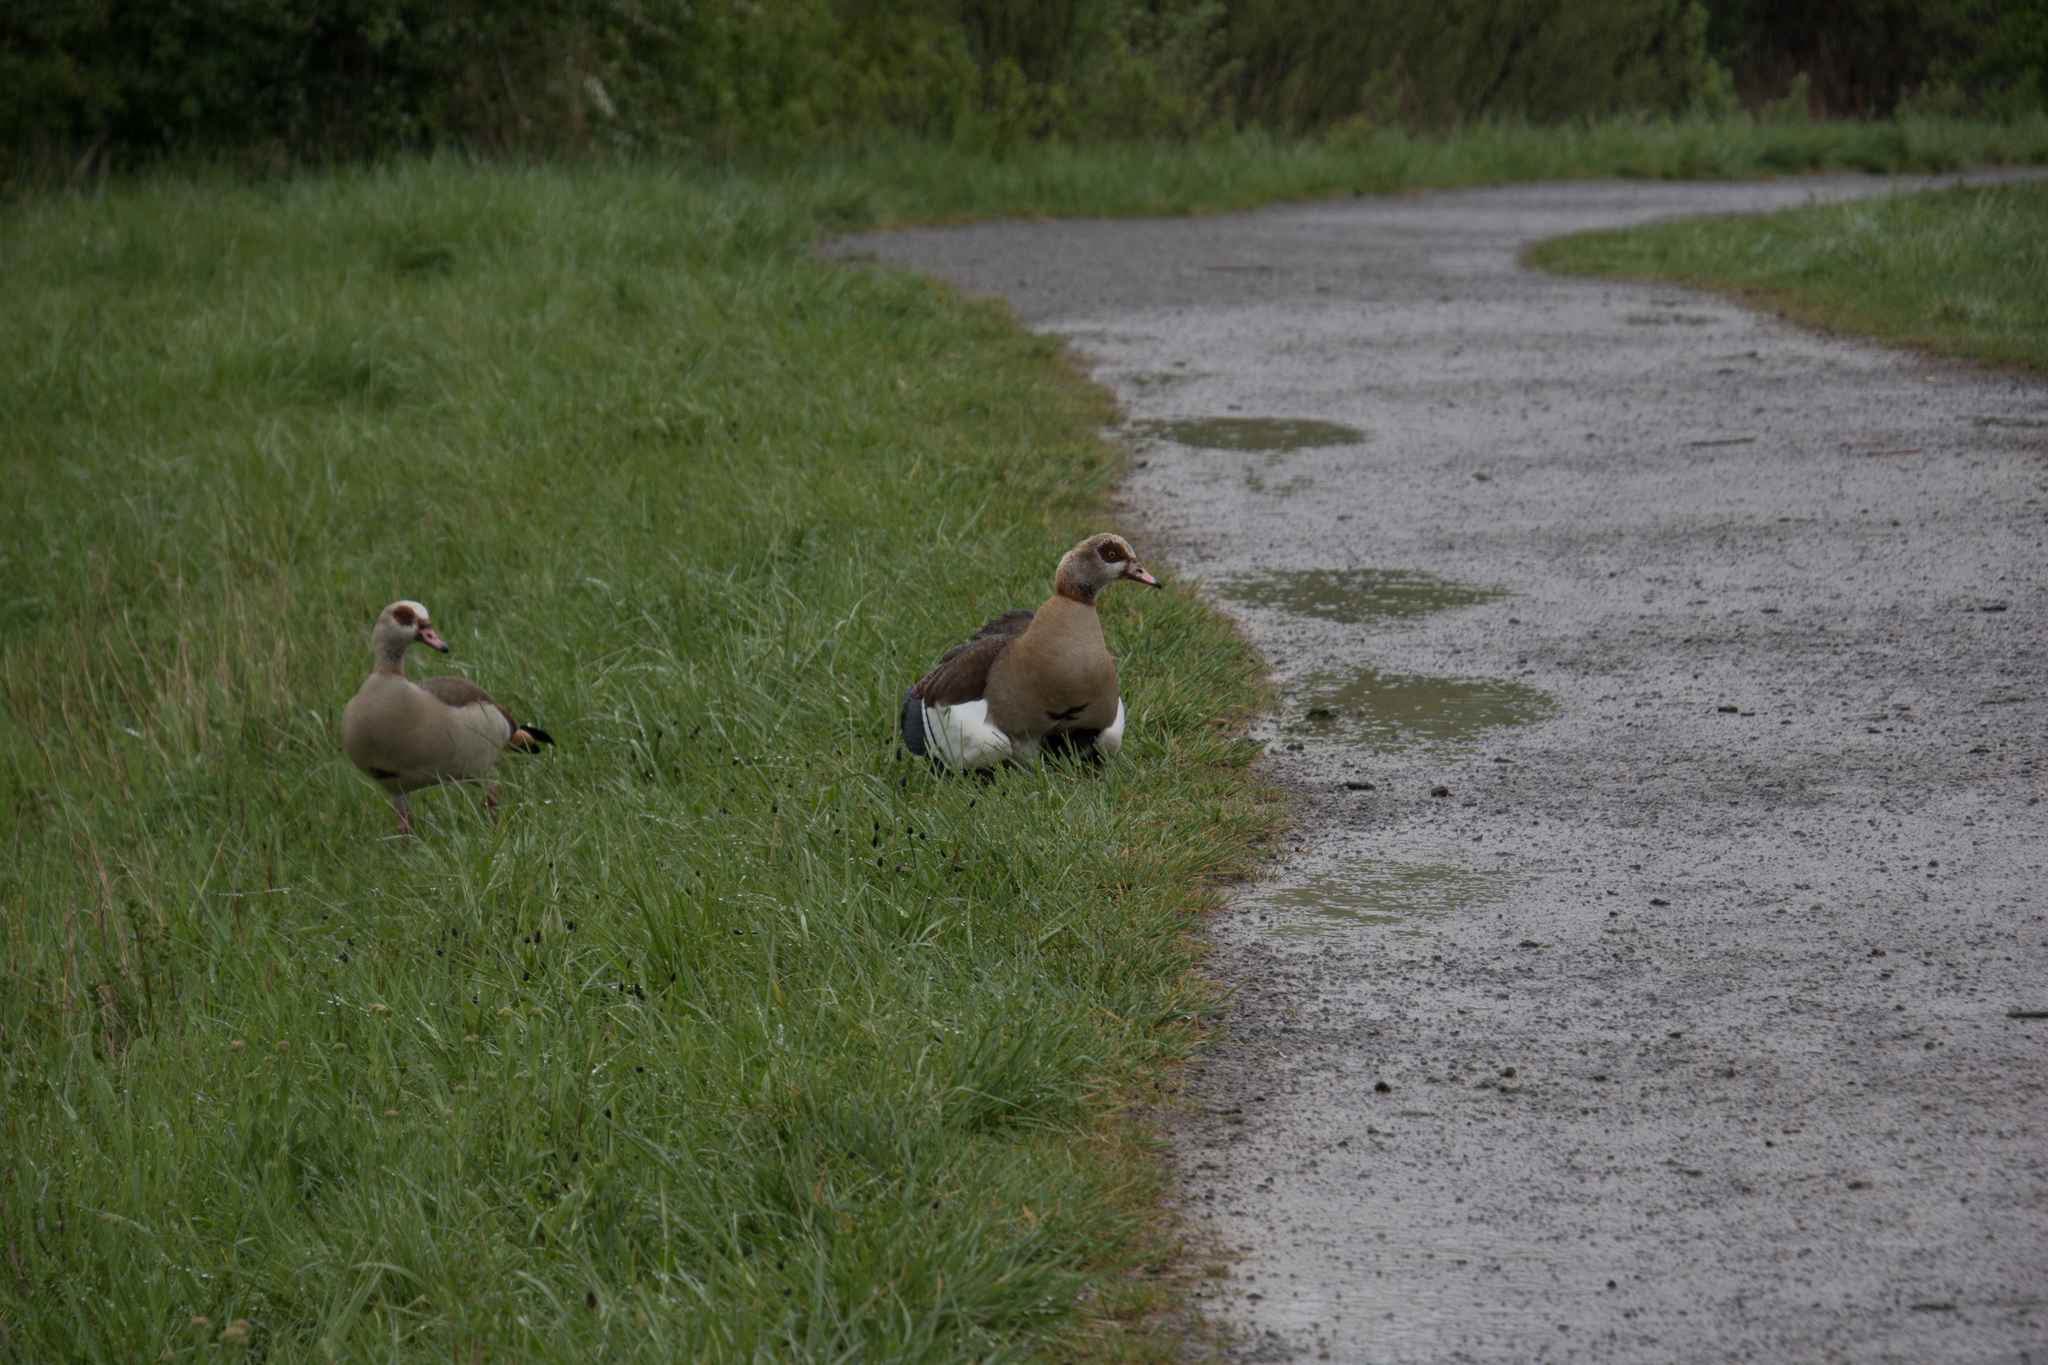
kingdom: Animalia
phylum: Chordata
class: Aves
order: Anseriformes
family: Anatidae
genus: Alopochen
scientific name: Alopochen aegyptiaca
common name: Egyptian goose
